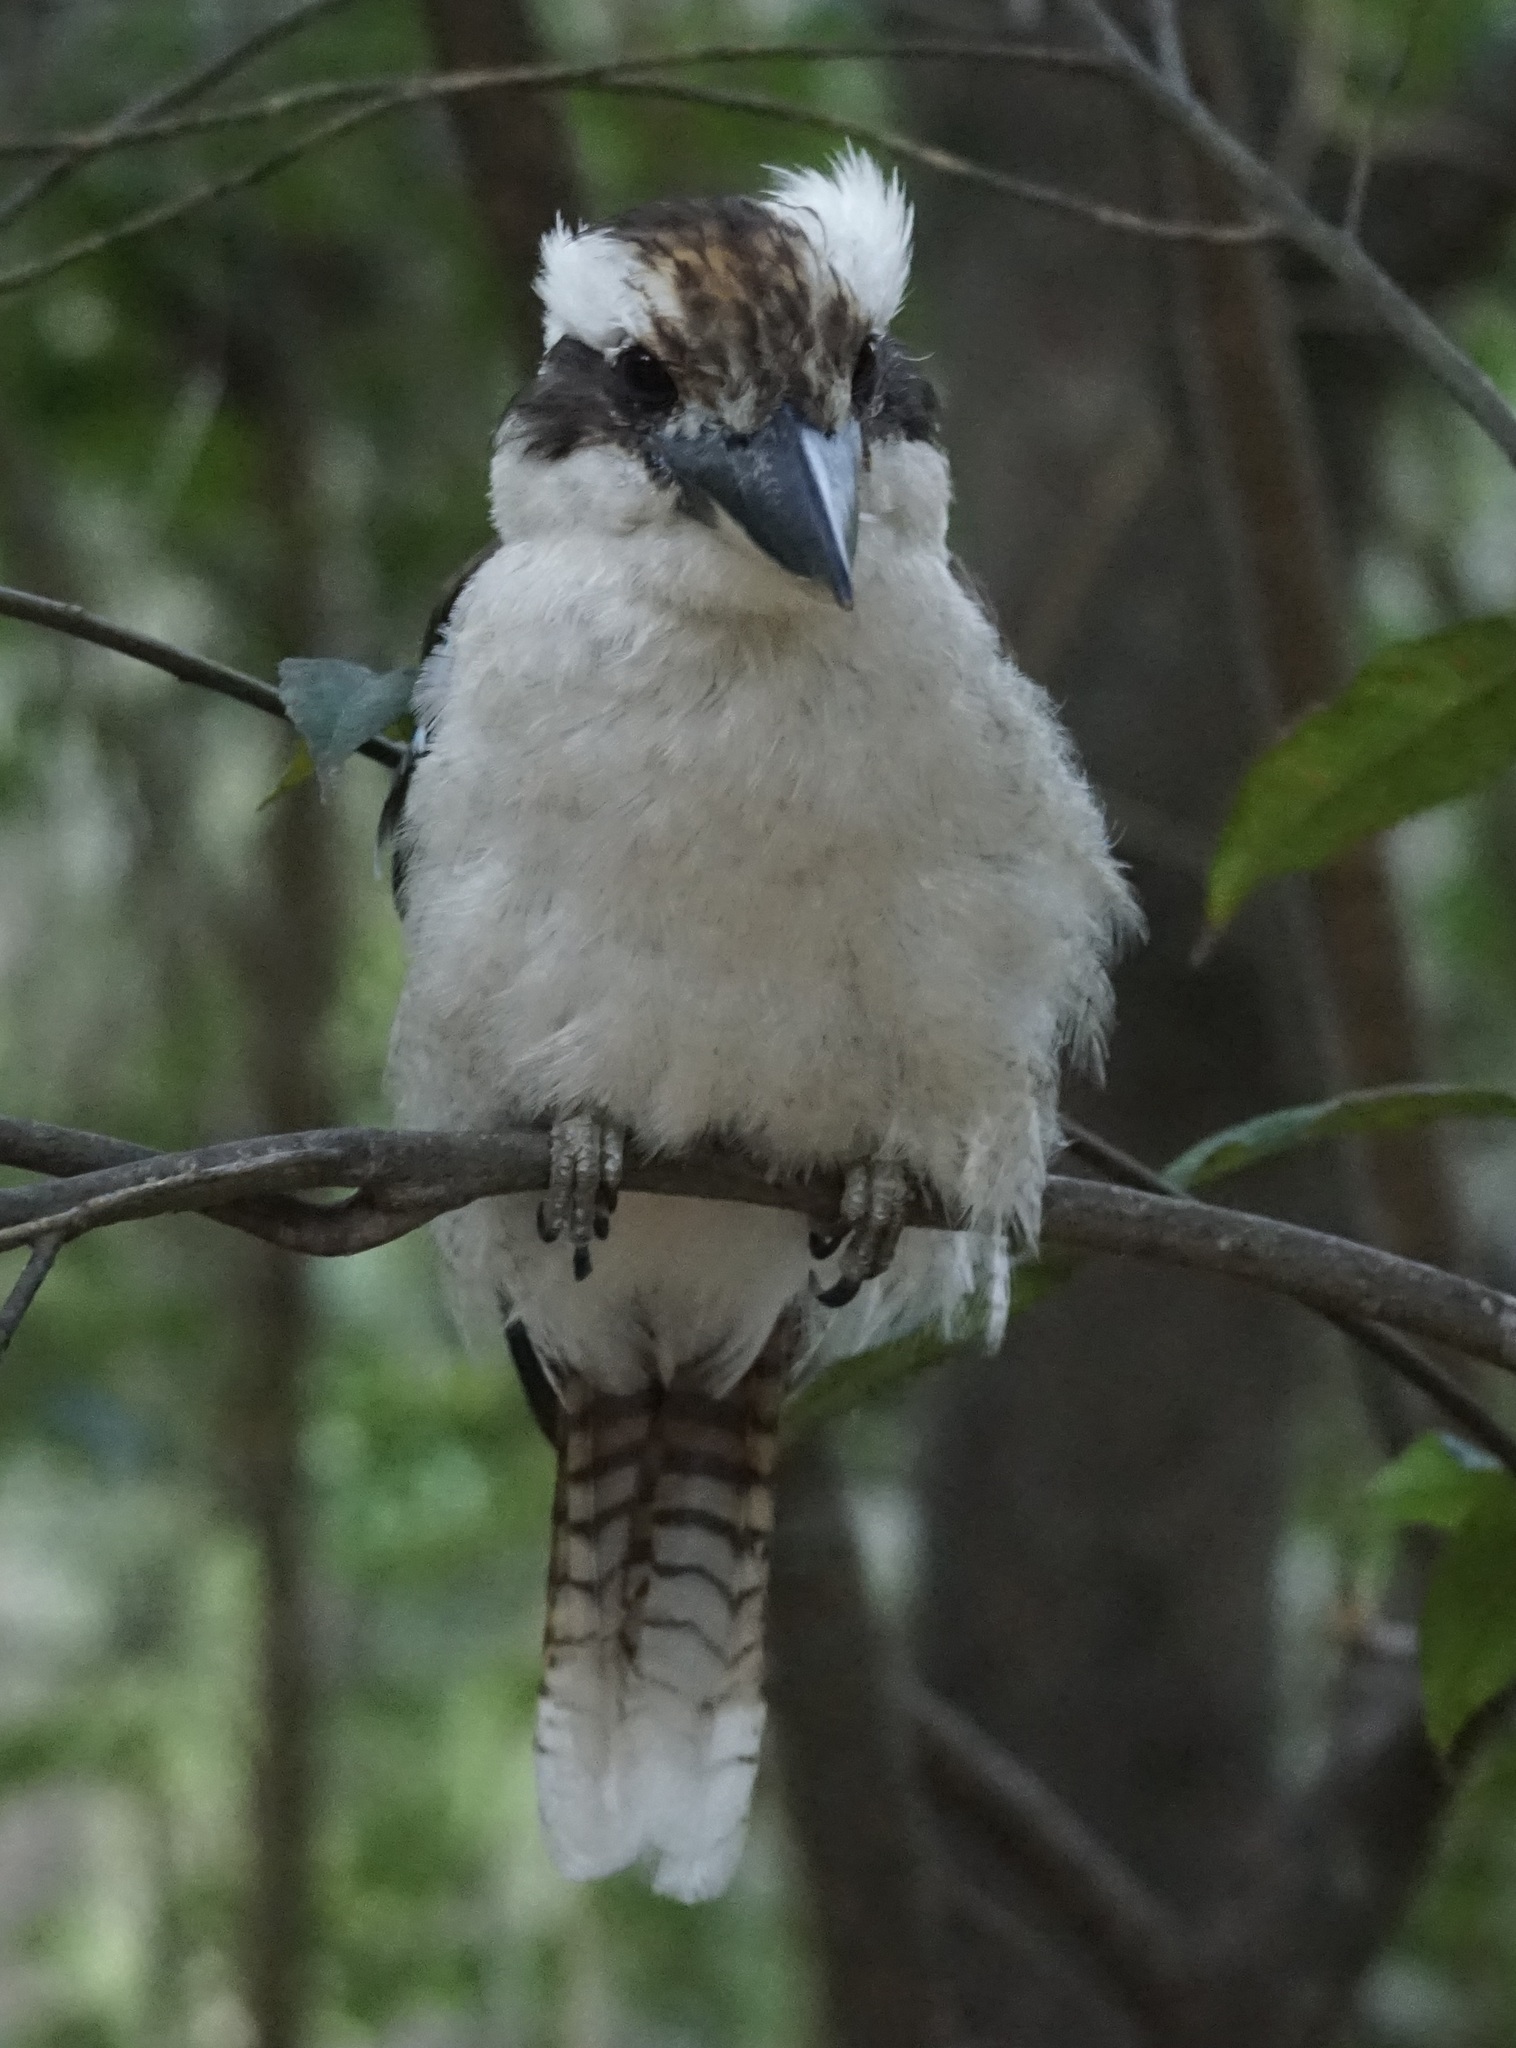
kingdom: Animalia
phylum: Chordata
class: Aves
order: Coraciiformes
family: Alcedinidae
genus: Dacelo
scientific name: Dacelo novaeguineae
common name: Laughing kookaburra
